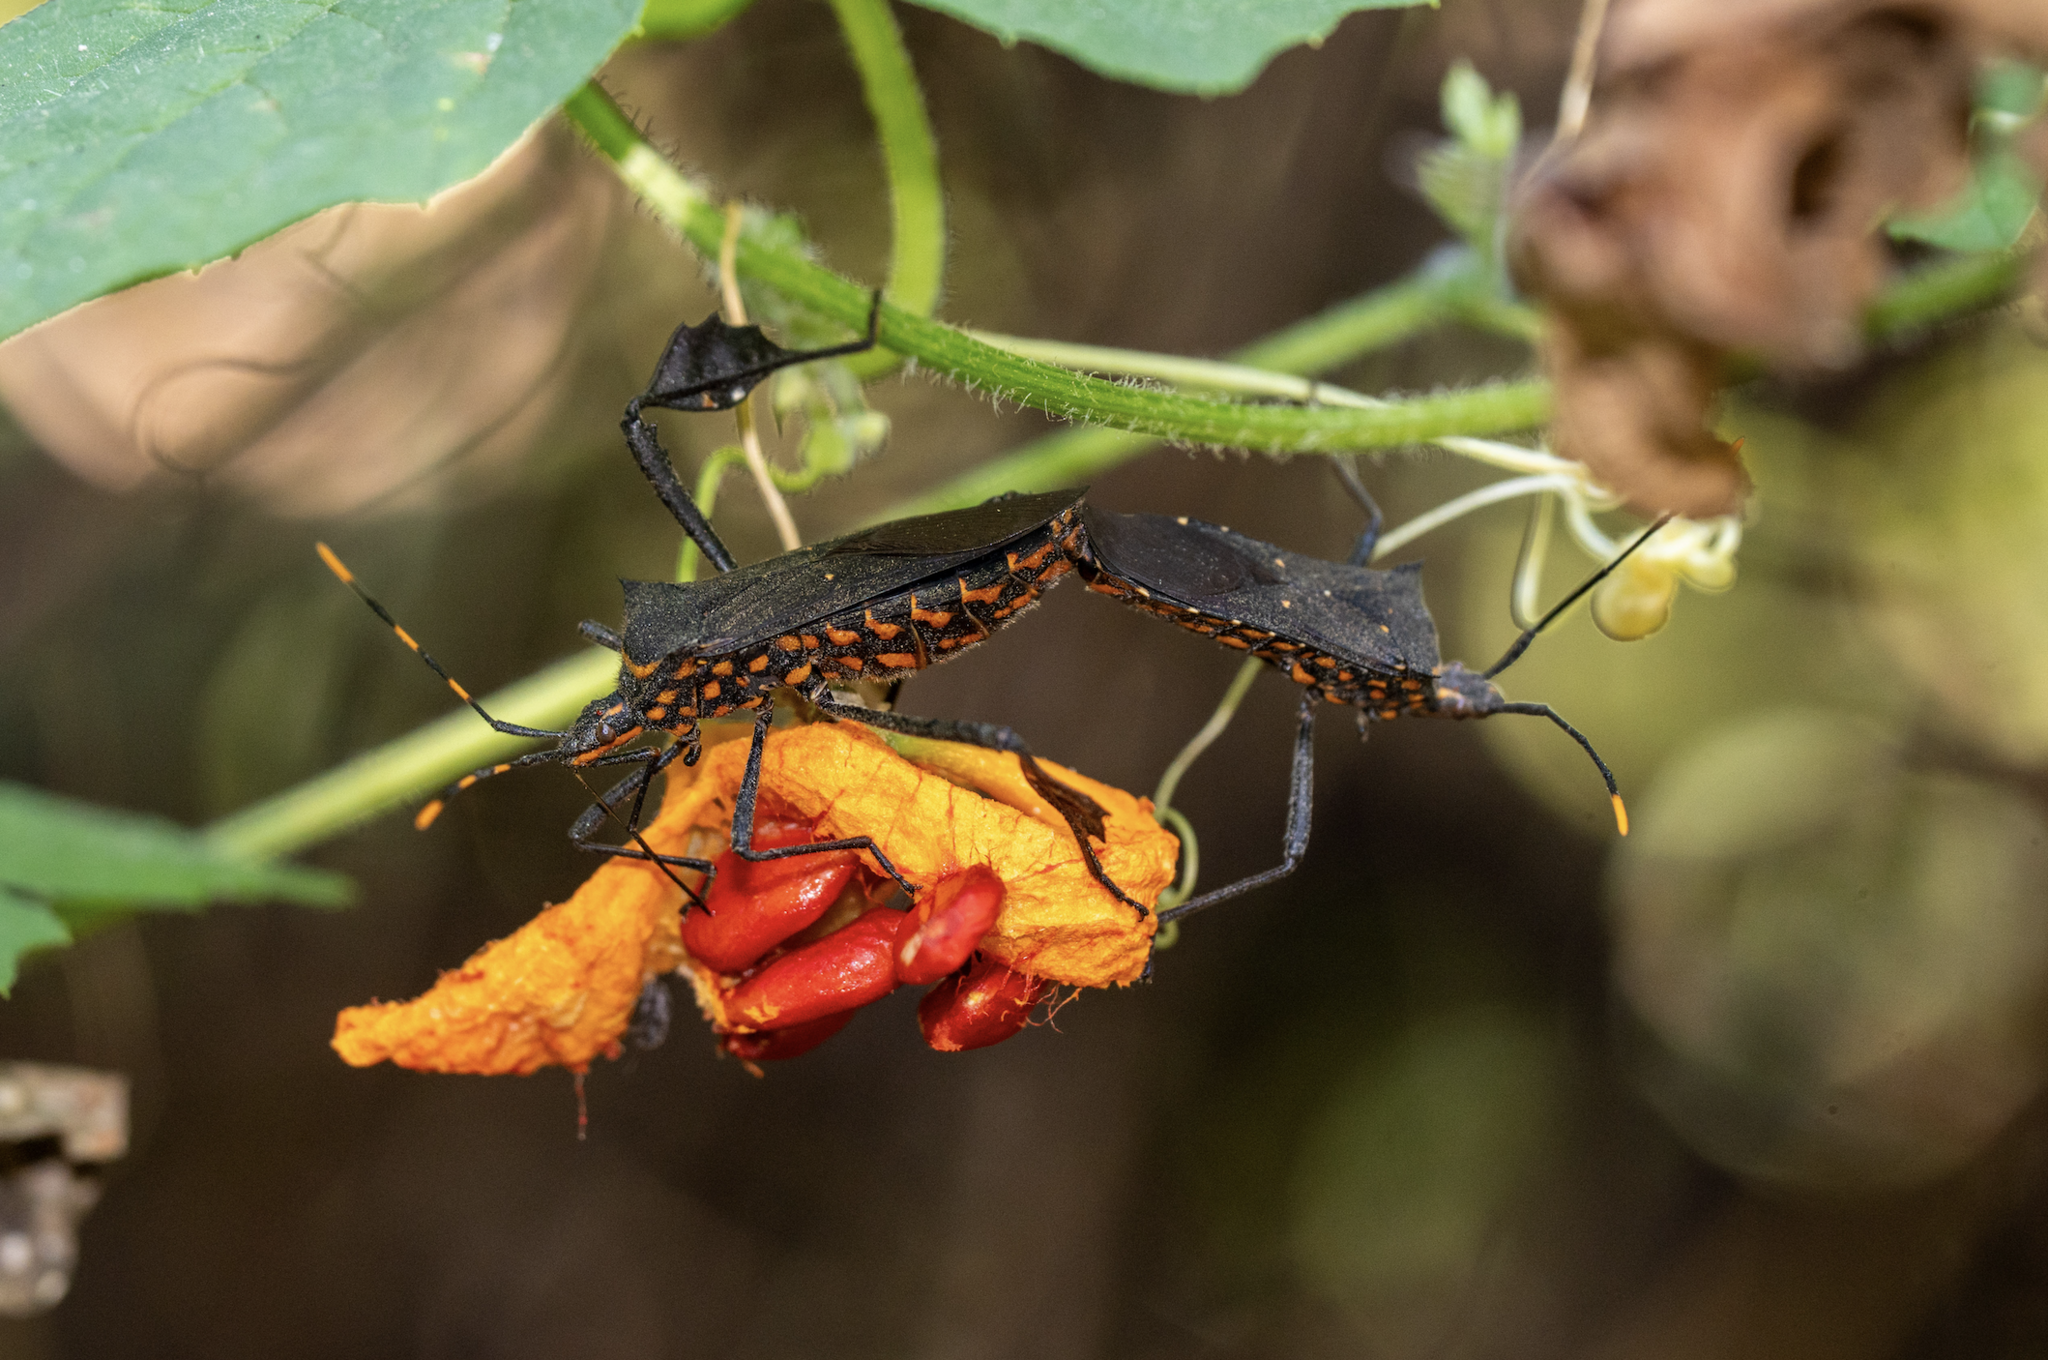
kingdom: Animalia
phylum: Arthropoda
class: Insecta
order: Hemiptera
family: Coreidae
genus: Leptoglossus
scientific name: Leptoglossus gonagra
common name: Citron bug
